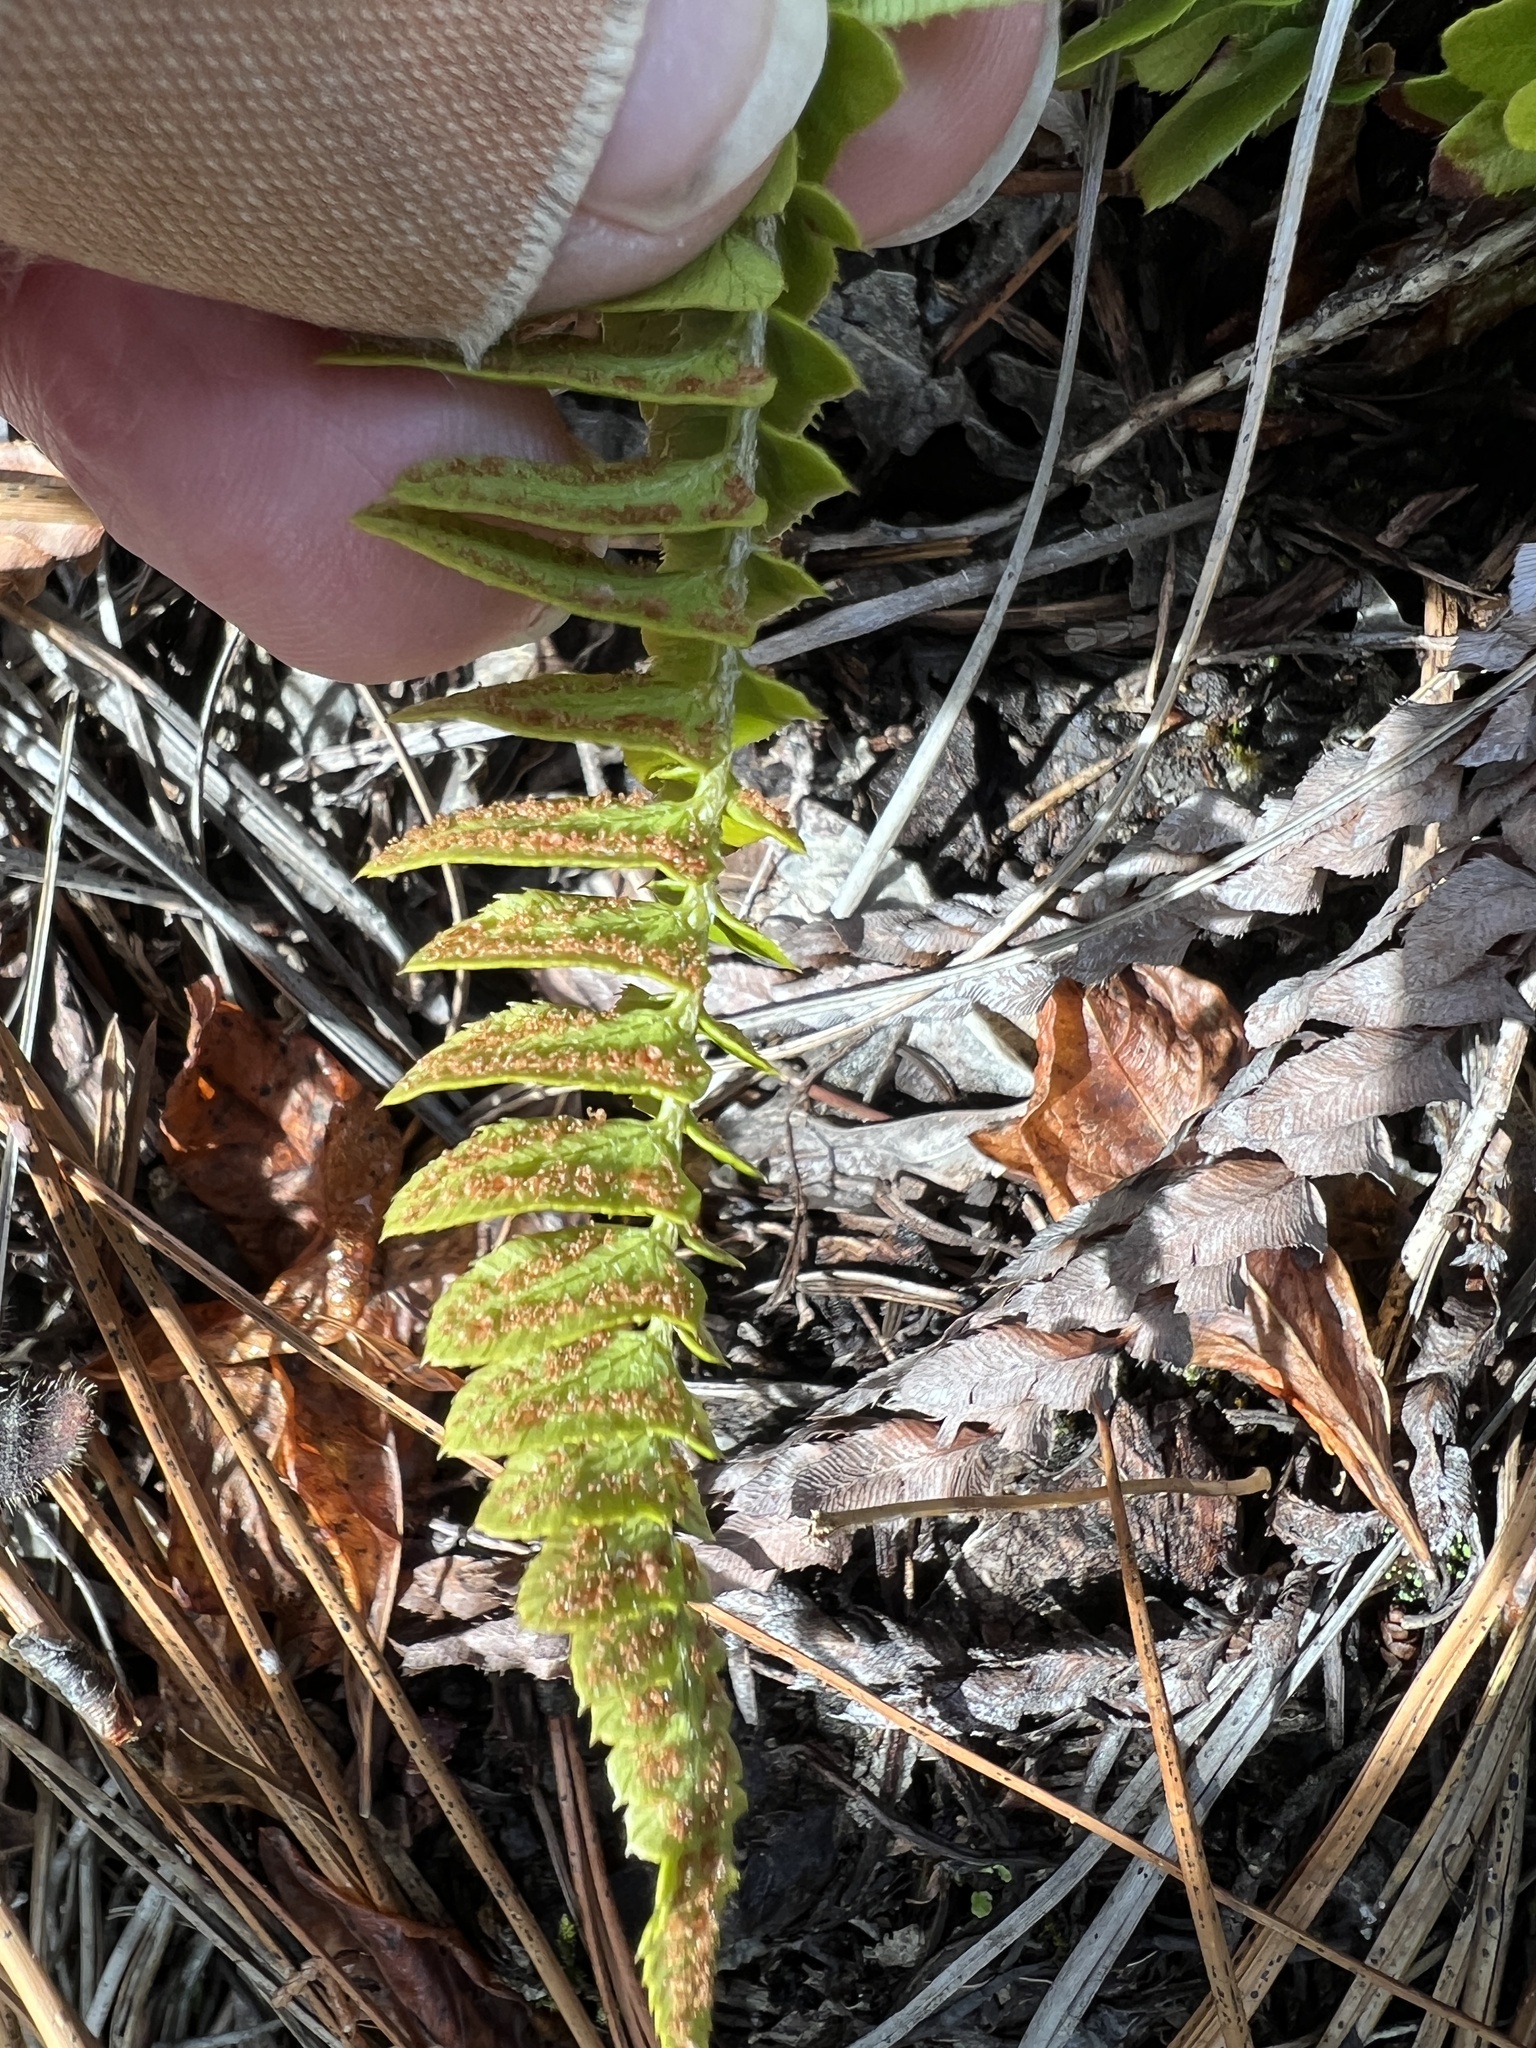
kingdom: Plantae
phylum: Tracheophyta
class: Polypodiopsida
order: Polypodiales
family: Dryopteridaceae
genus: Polystichum
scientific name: Polystichum imbricans
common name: Dwarf western sword fern
